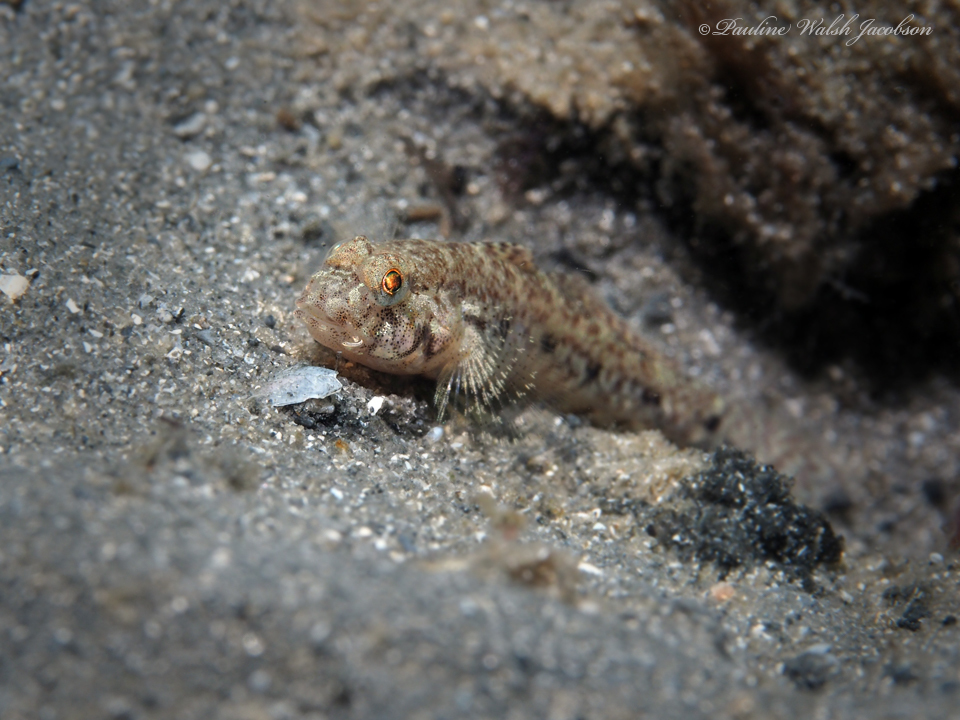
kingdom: Animalia
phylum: Chordata
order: Perciformes
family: Gobiidae
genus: Ctenogobius
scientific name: Ctenogobius stigmaturus
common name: Spottail goby
